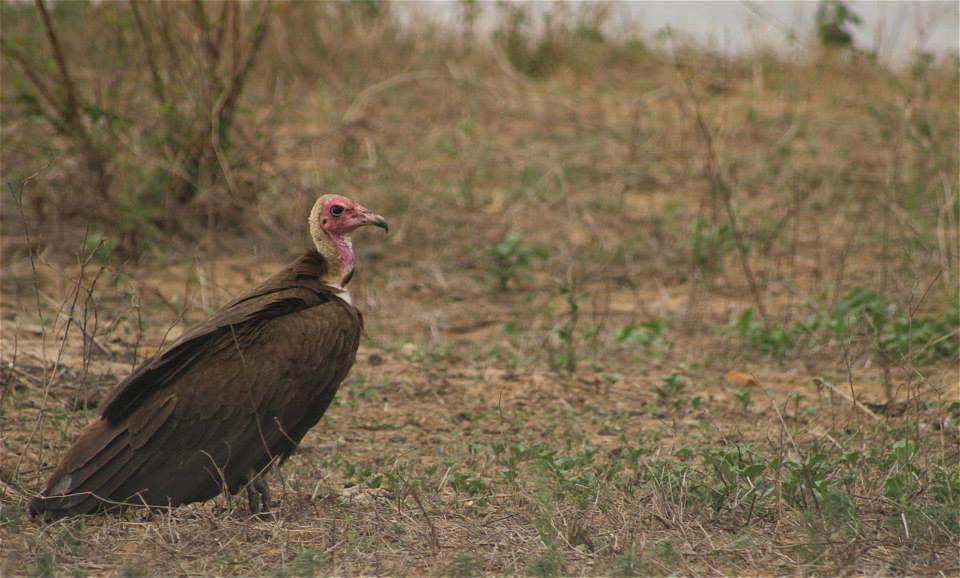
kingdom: Animalia
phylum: Chordata
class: Aves
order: Accipitriformes
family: Accipitridae
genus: Necrosyrtes
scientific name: Necrosyrtes monachus
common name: Hooded vulture
